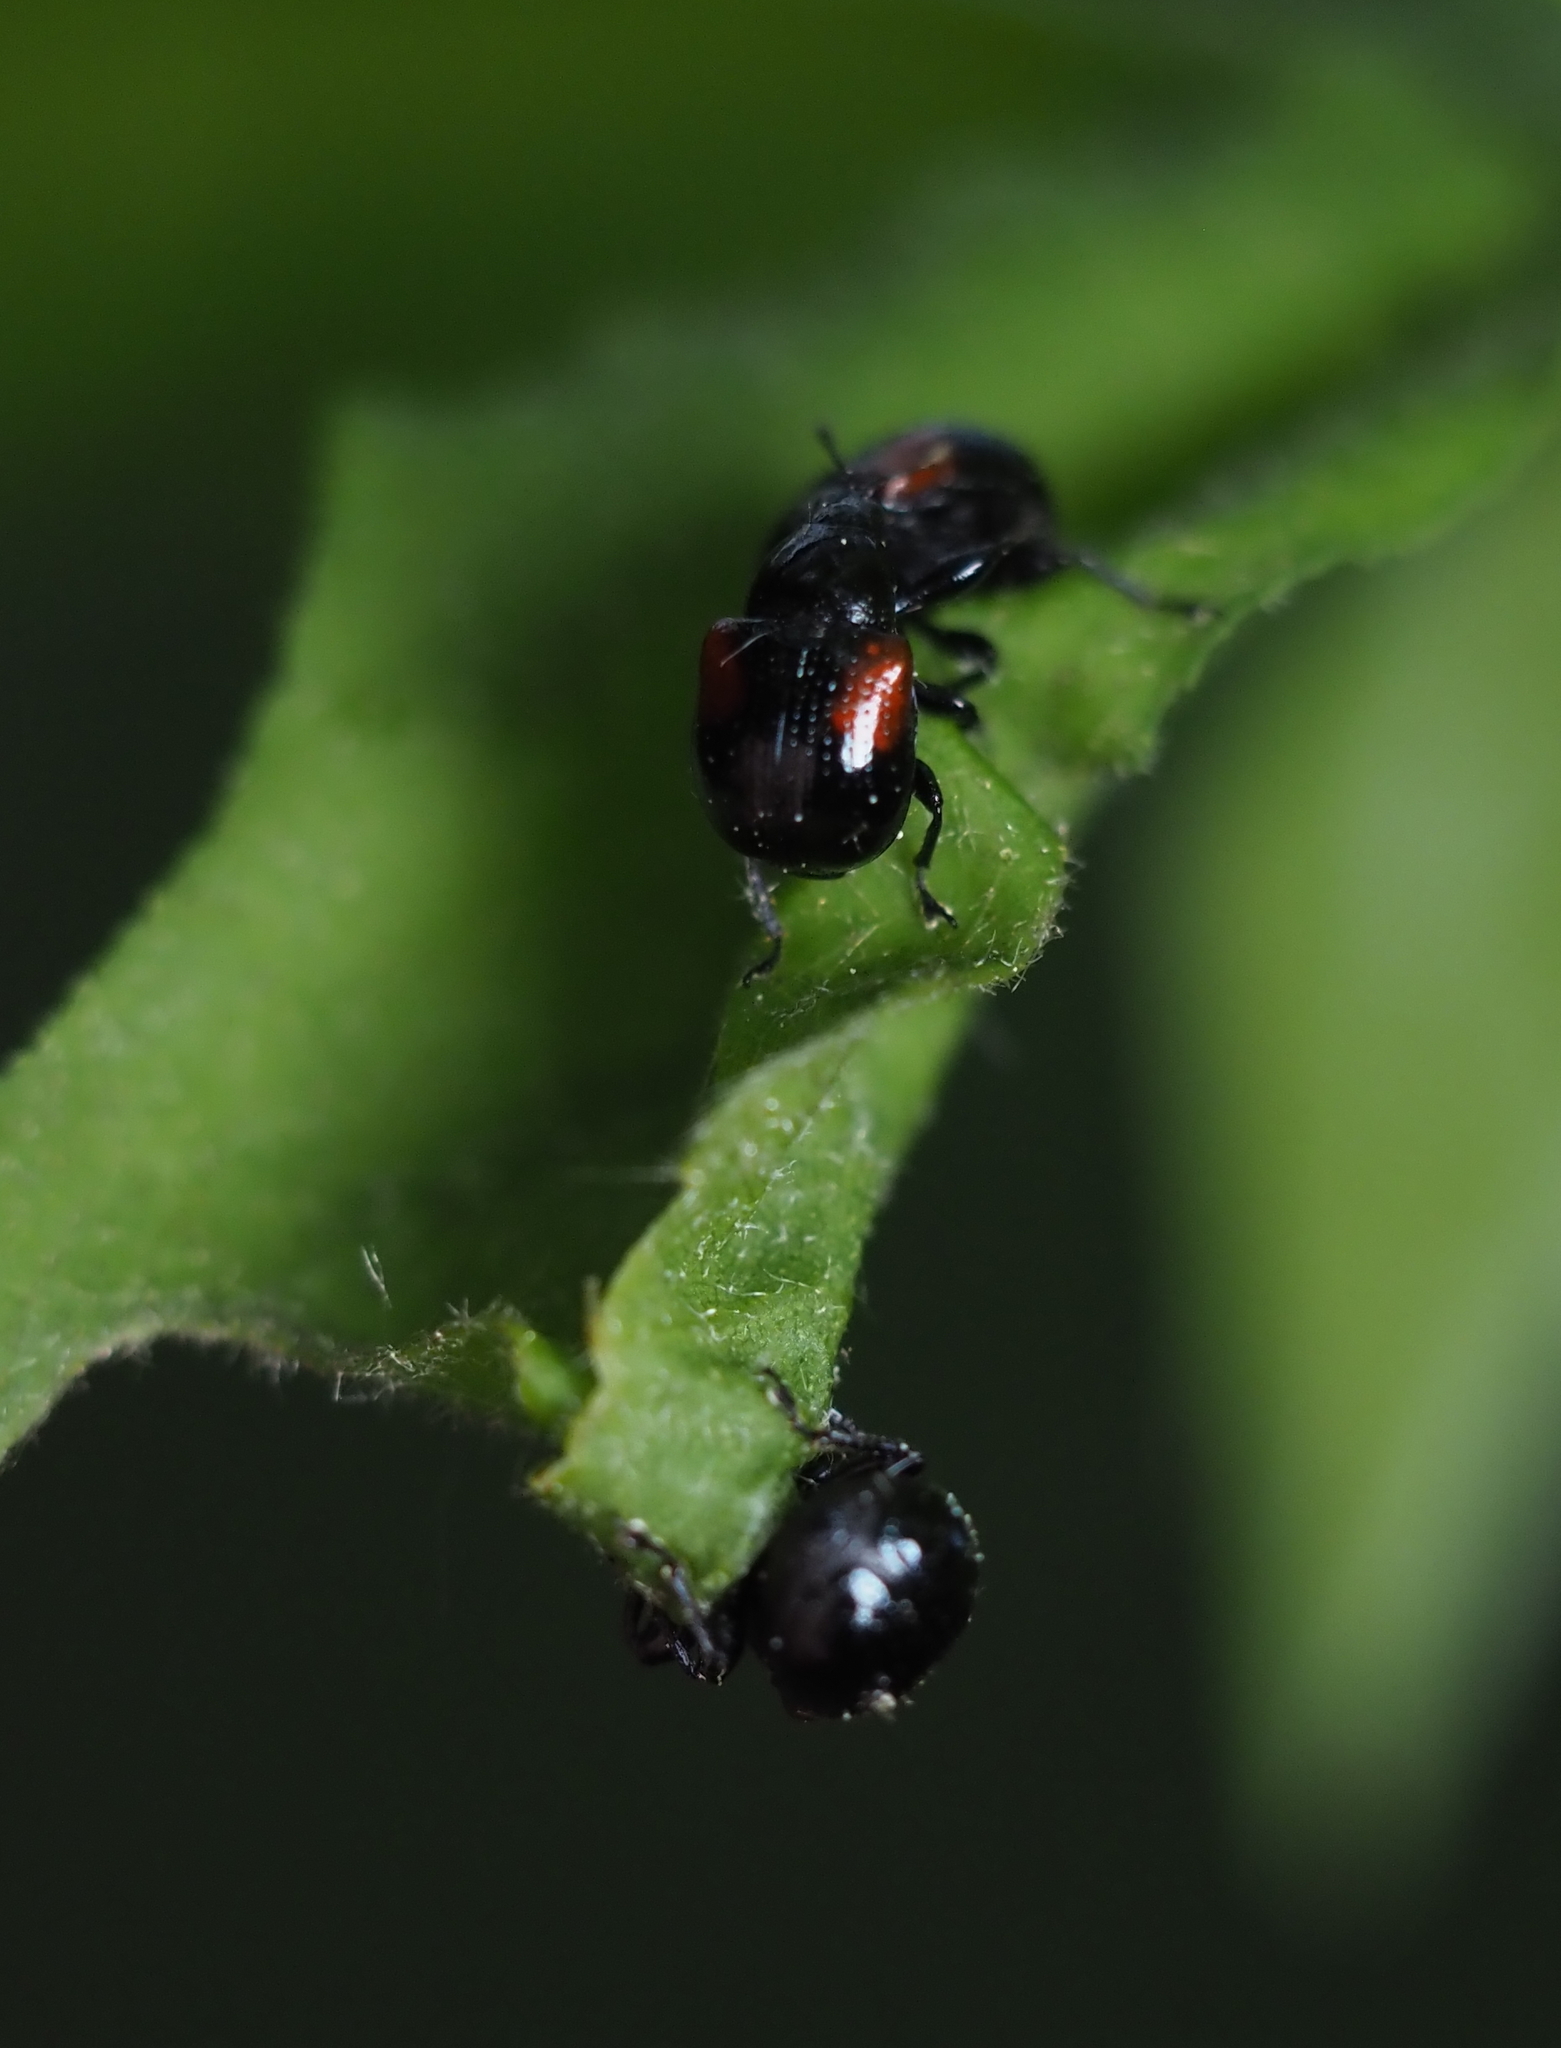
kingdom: Animalia
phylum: Arthropoda
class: Insecta
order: Coleoptera
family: Attelabidae
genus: Attelabus
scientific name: Attelabus bipustulatus
